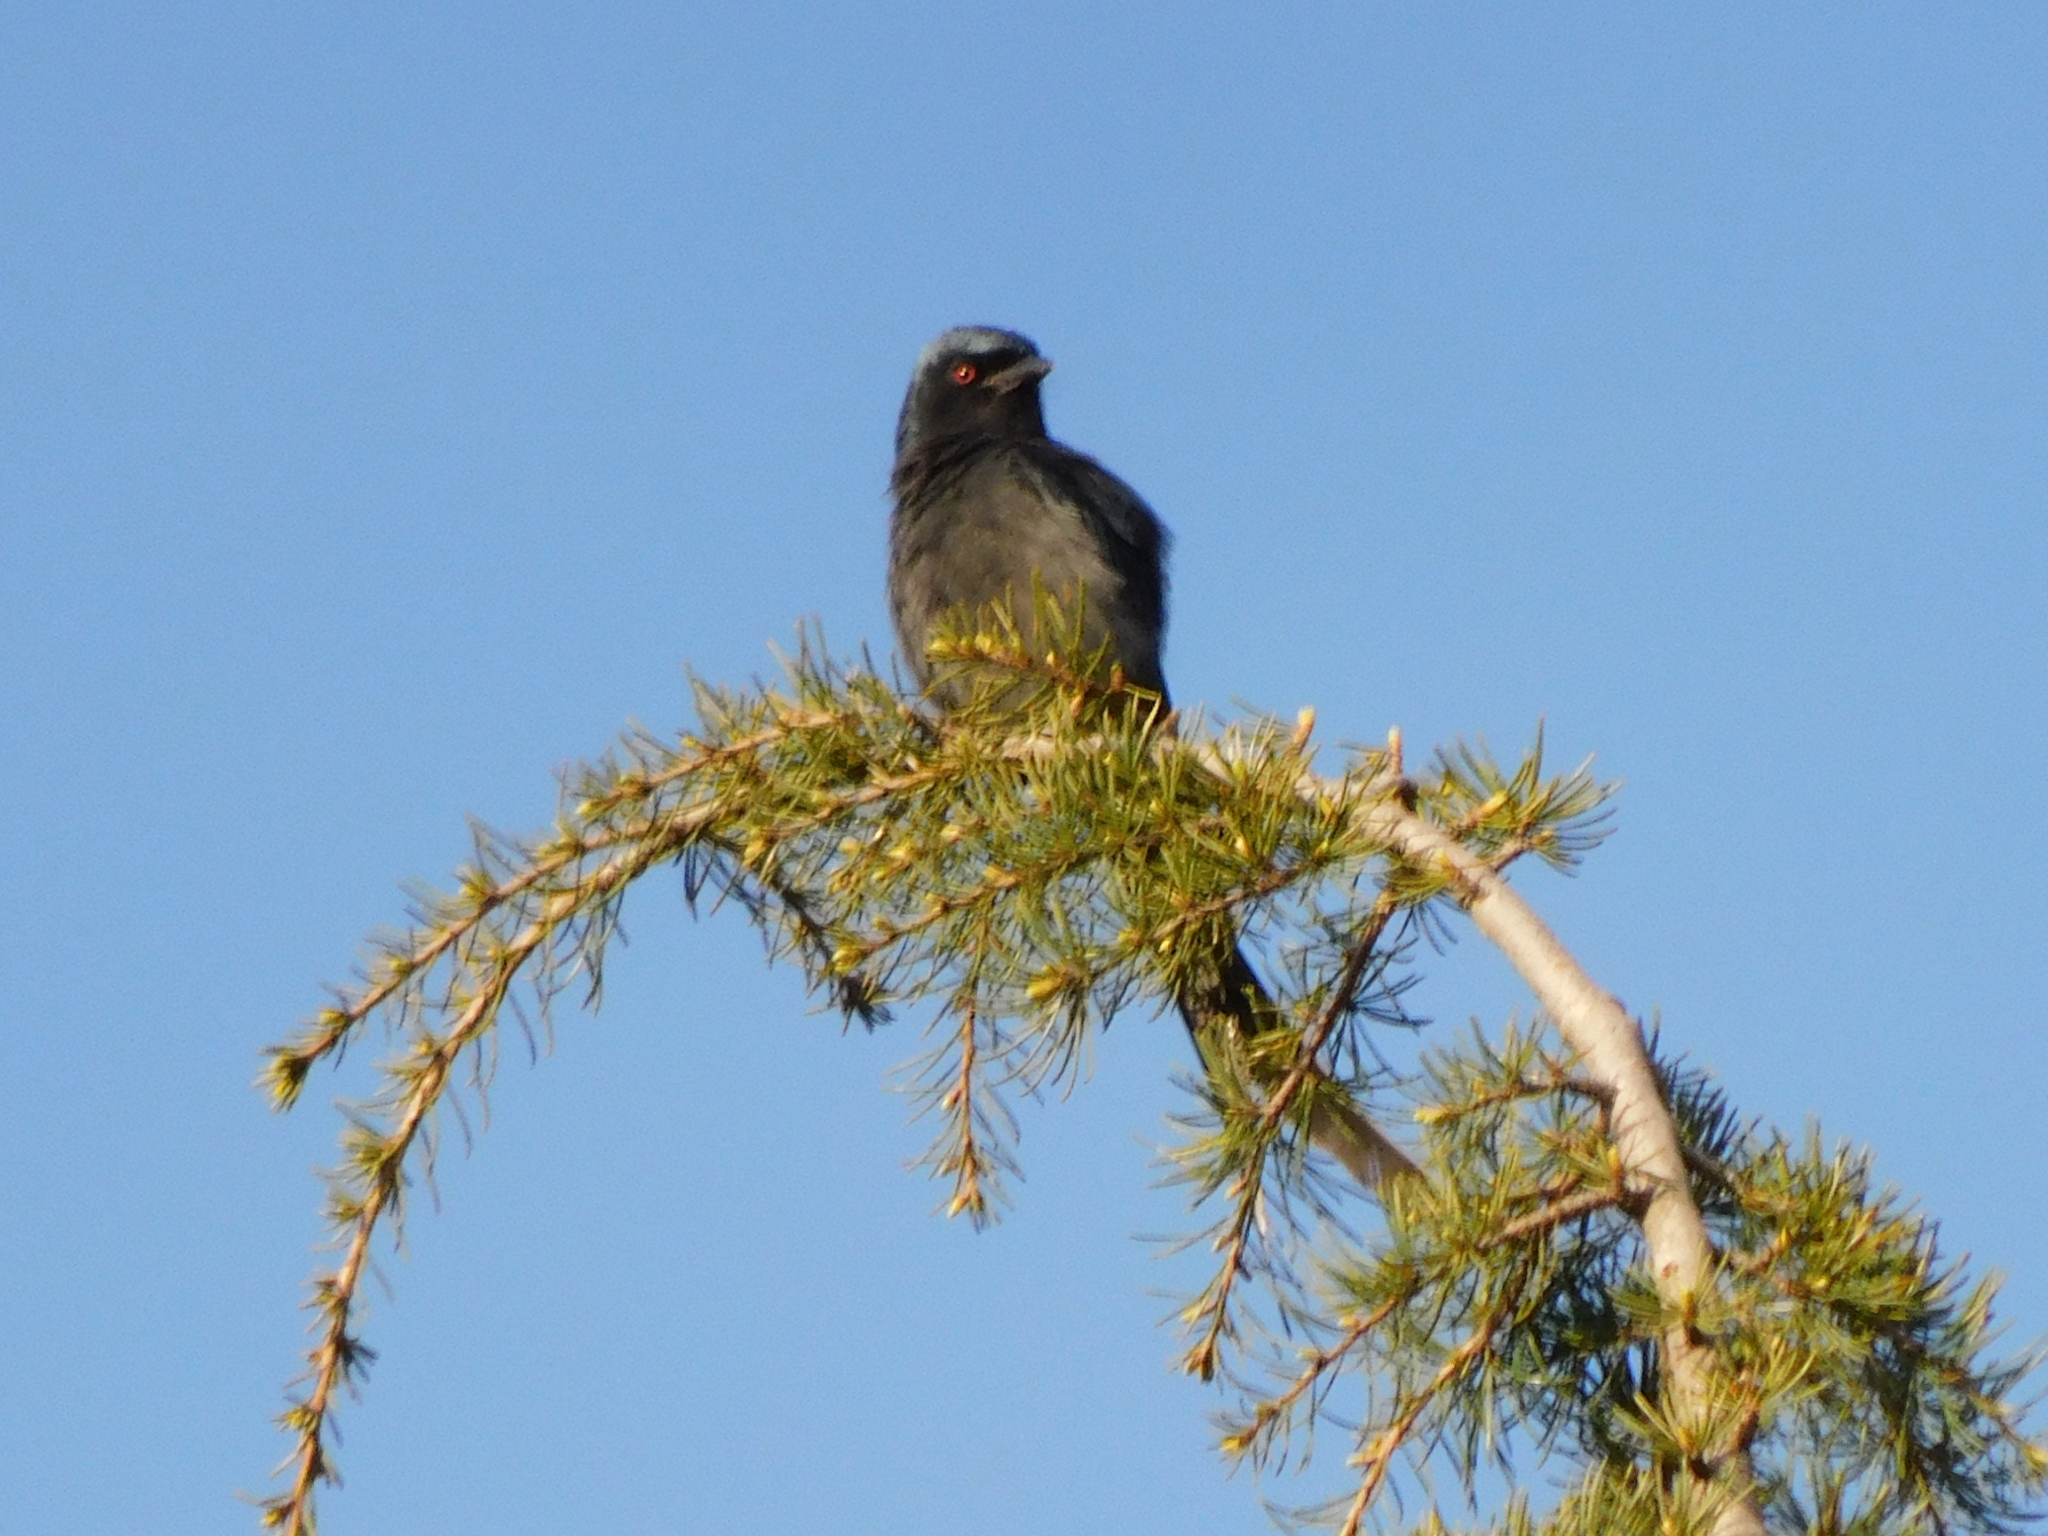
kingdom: Animalia
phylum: Chordata
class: Aves
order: Passeriformes
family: Dicruridae
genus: Dicrurus
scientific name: Dicrurus leucophaeus
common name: Ashy drongo
